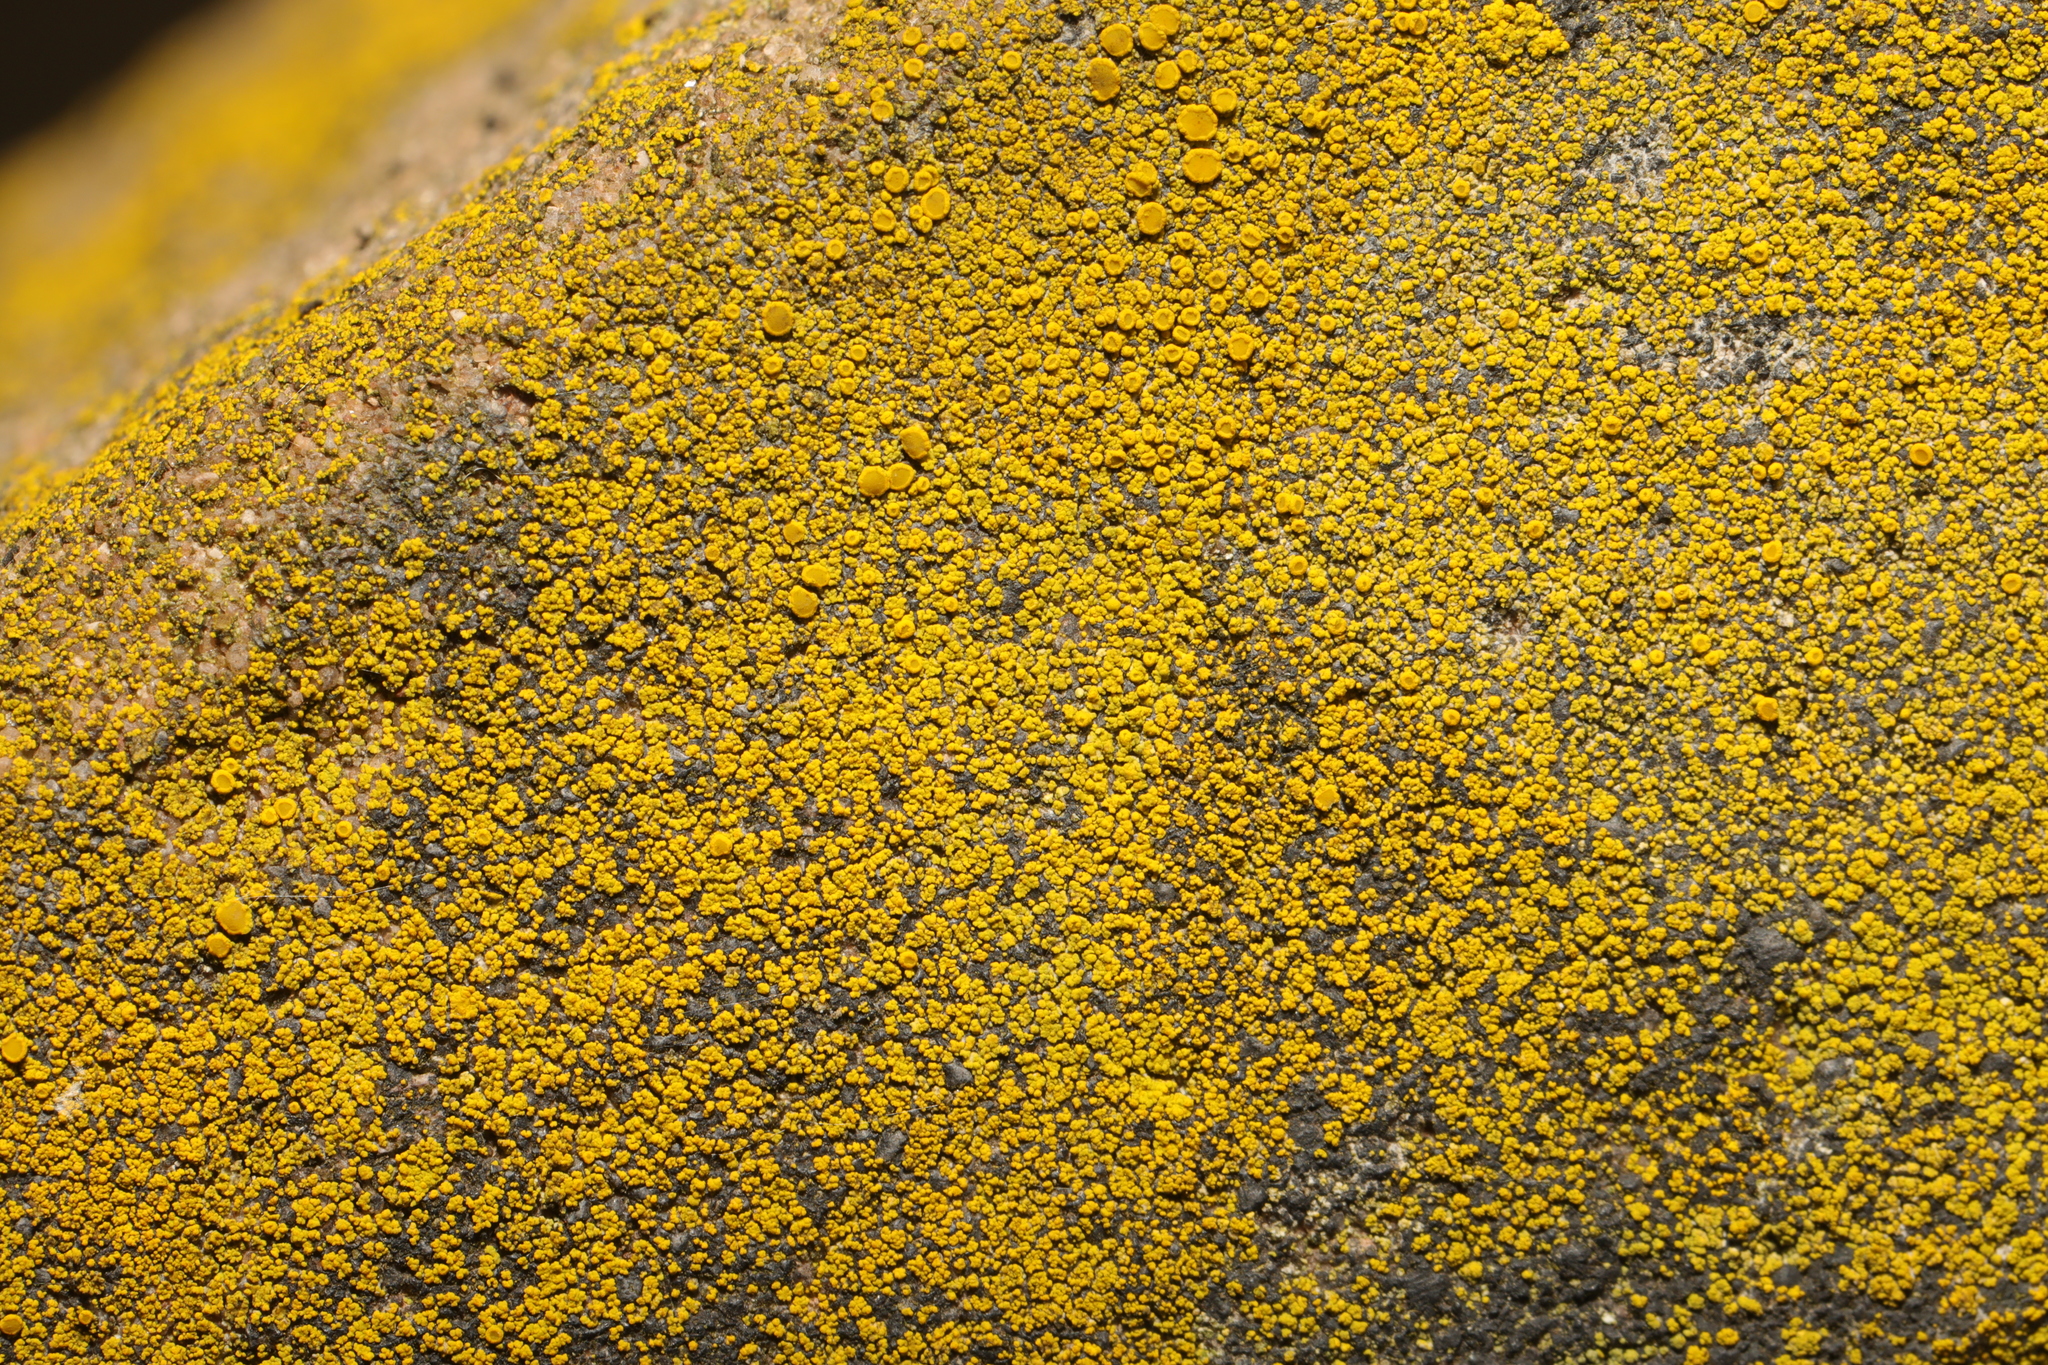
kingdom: Fungi
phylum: Ascomycota
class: Candelariomycetes
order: Candelariales
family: Candelariaceae
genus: Candelariella
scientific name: Candelariella vitellina
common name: Common goldspeck
